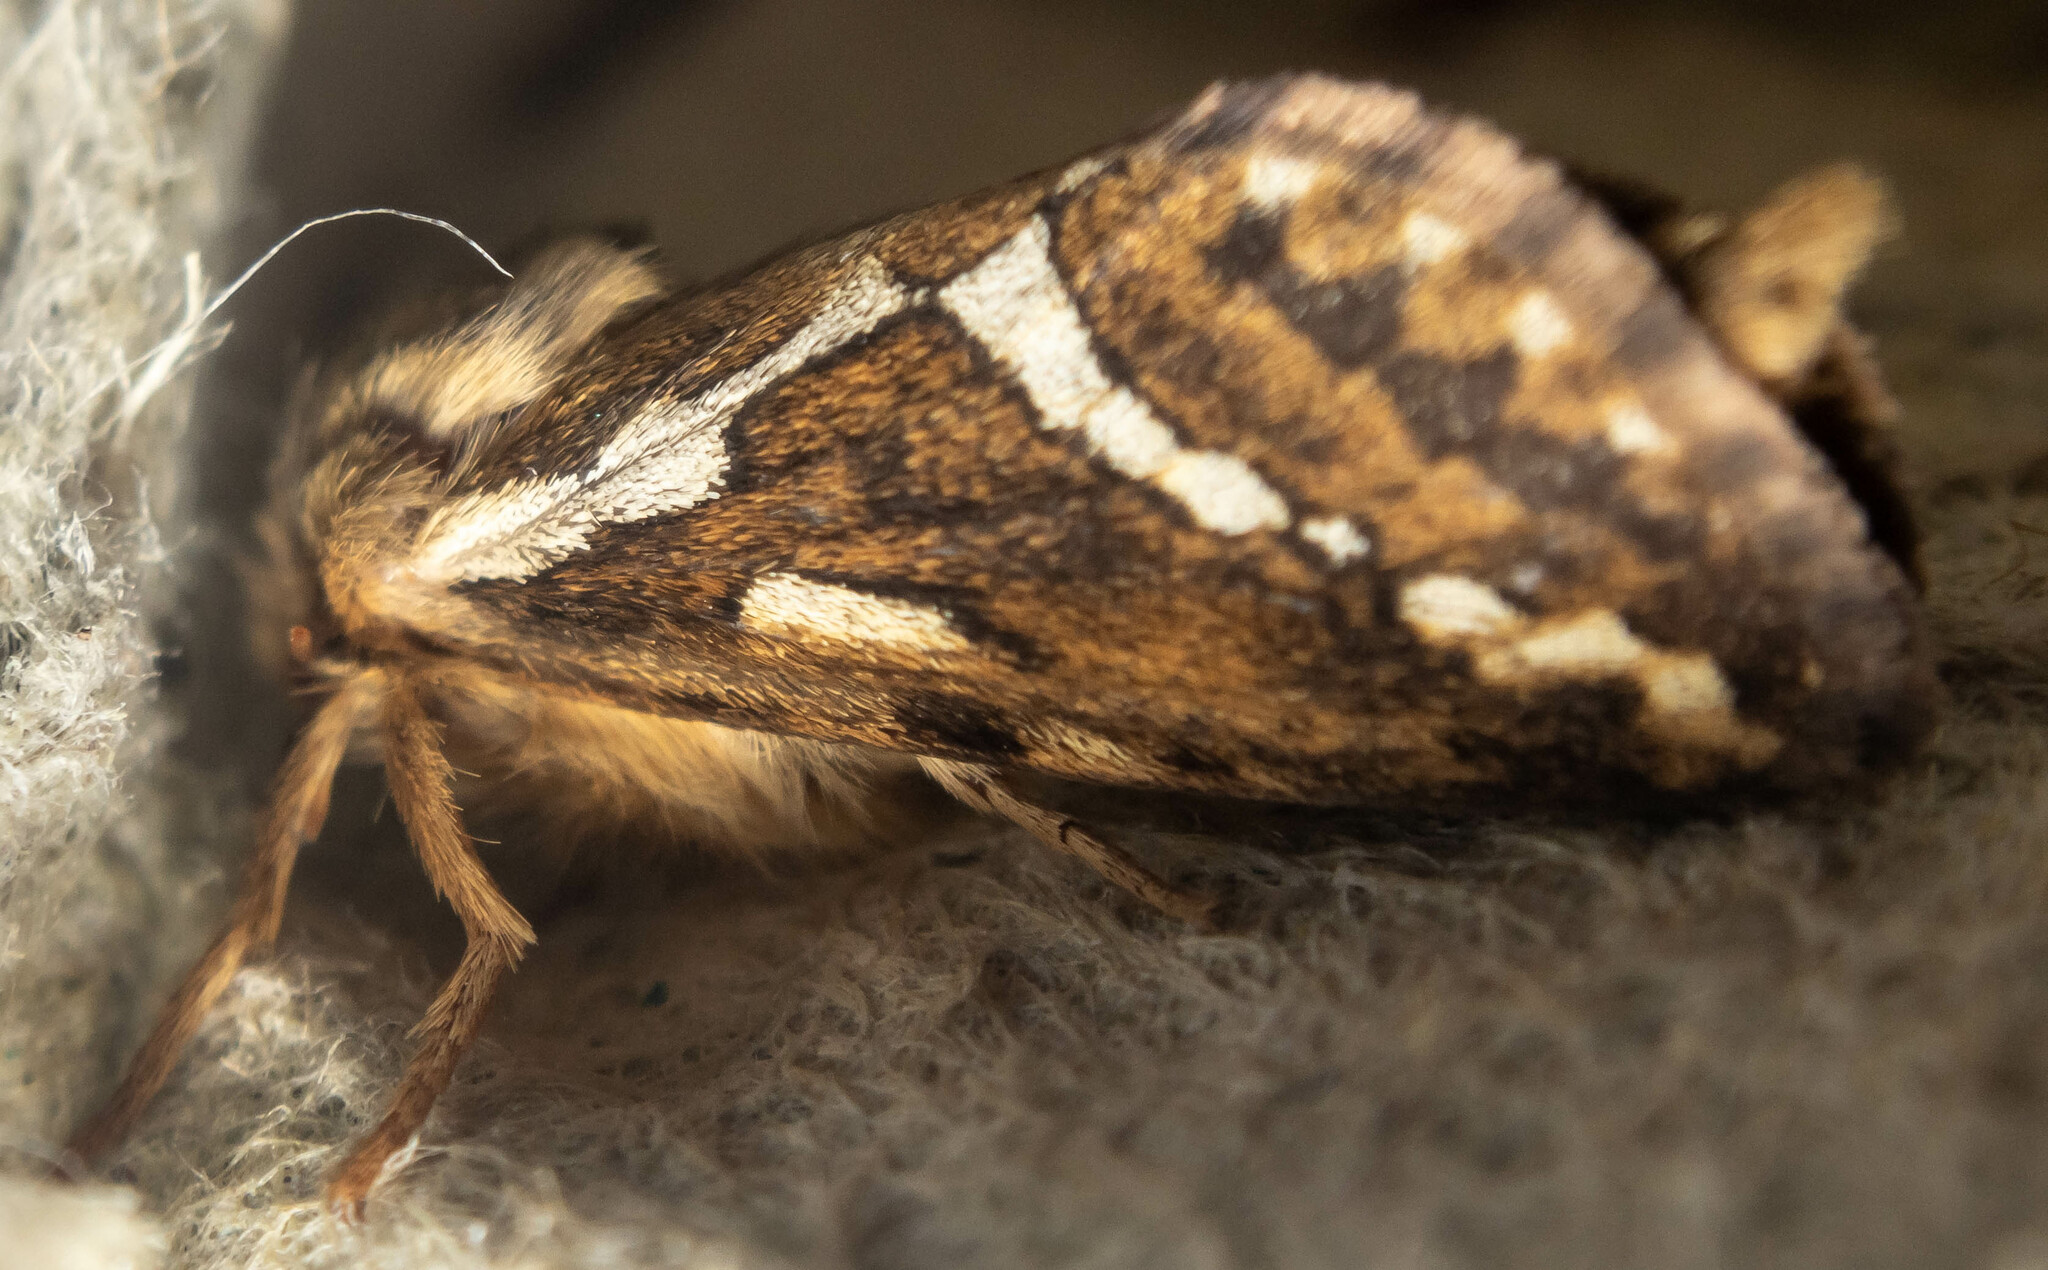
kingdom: Animalia
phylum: Arthropoda
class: Insecta
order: Lepidoptera
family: Hepialidae
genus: Korscheltellus
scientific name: Korscheltellus lupulina
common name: Common swift
